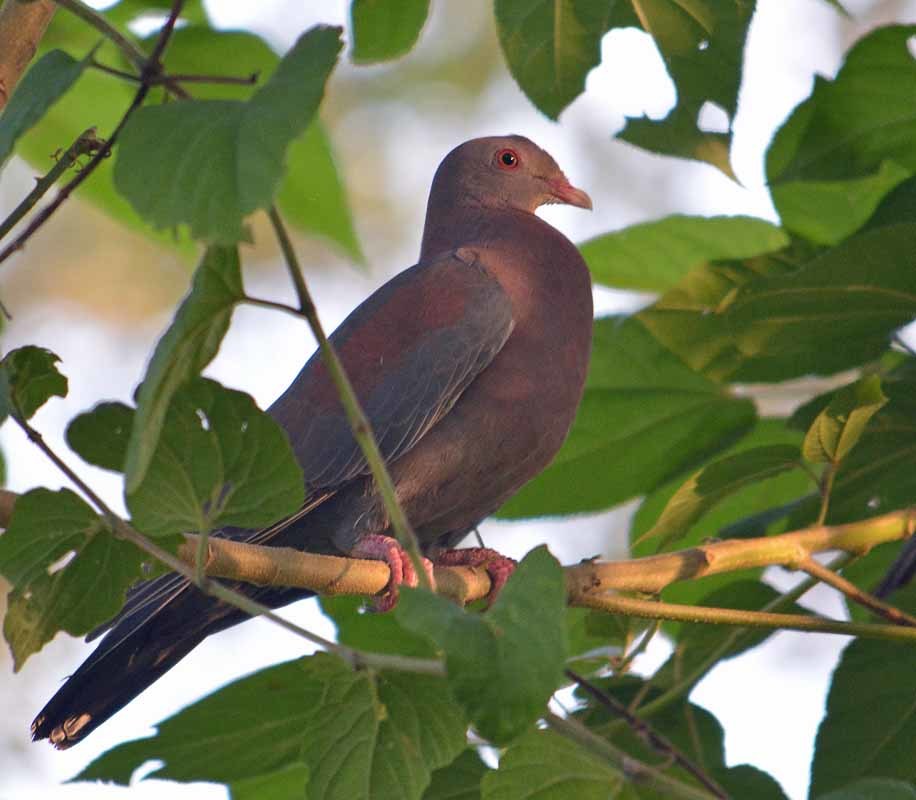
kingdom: Animalia
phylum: Chordata
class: Aves
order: Columbiformes
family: Columbidae
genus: Patagioenas
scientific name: Patagioenas flavirostris
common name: Red-billed pigeon
